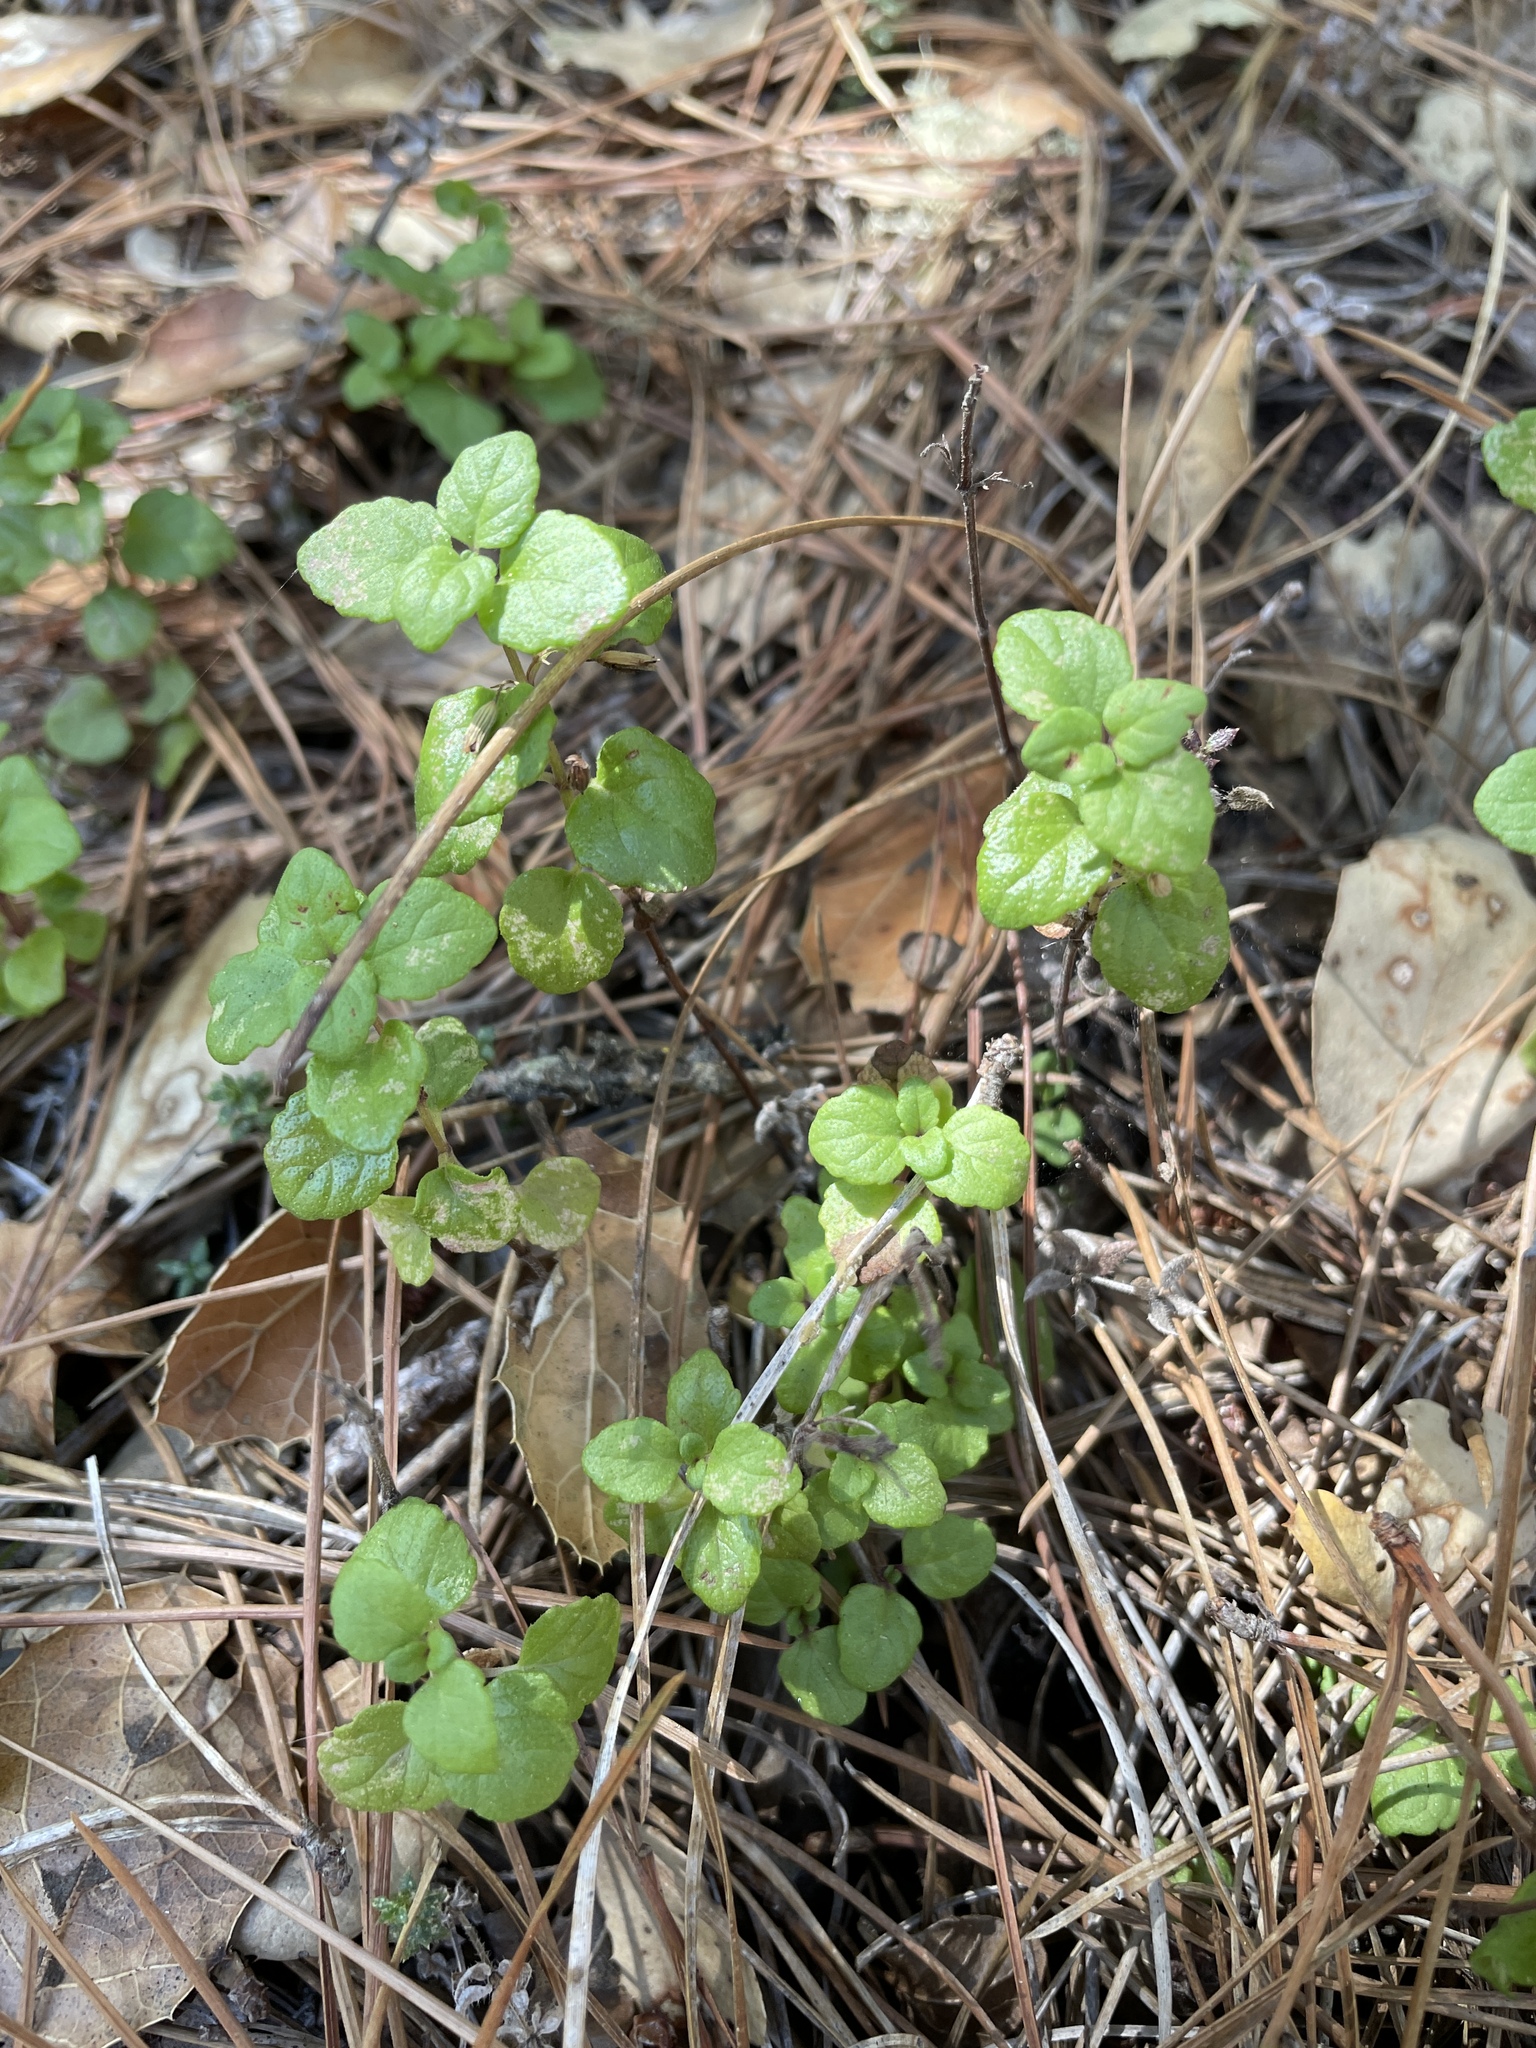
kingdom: Plantae
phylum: Tracheophyta
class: Magnoliopsida
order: Lamiales
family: Lamiaceae
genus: Micromeria
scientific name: Micromeria douglasii
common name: Yerba buena
